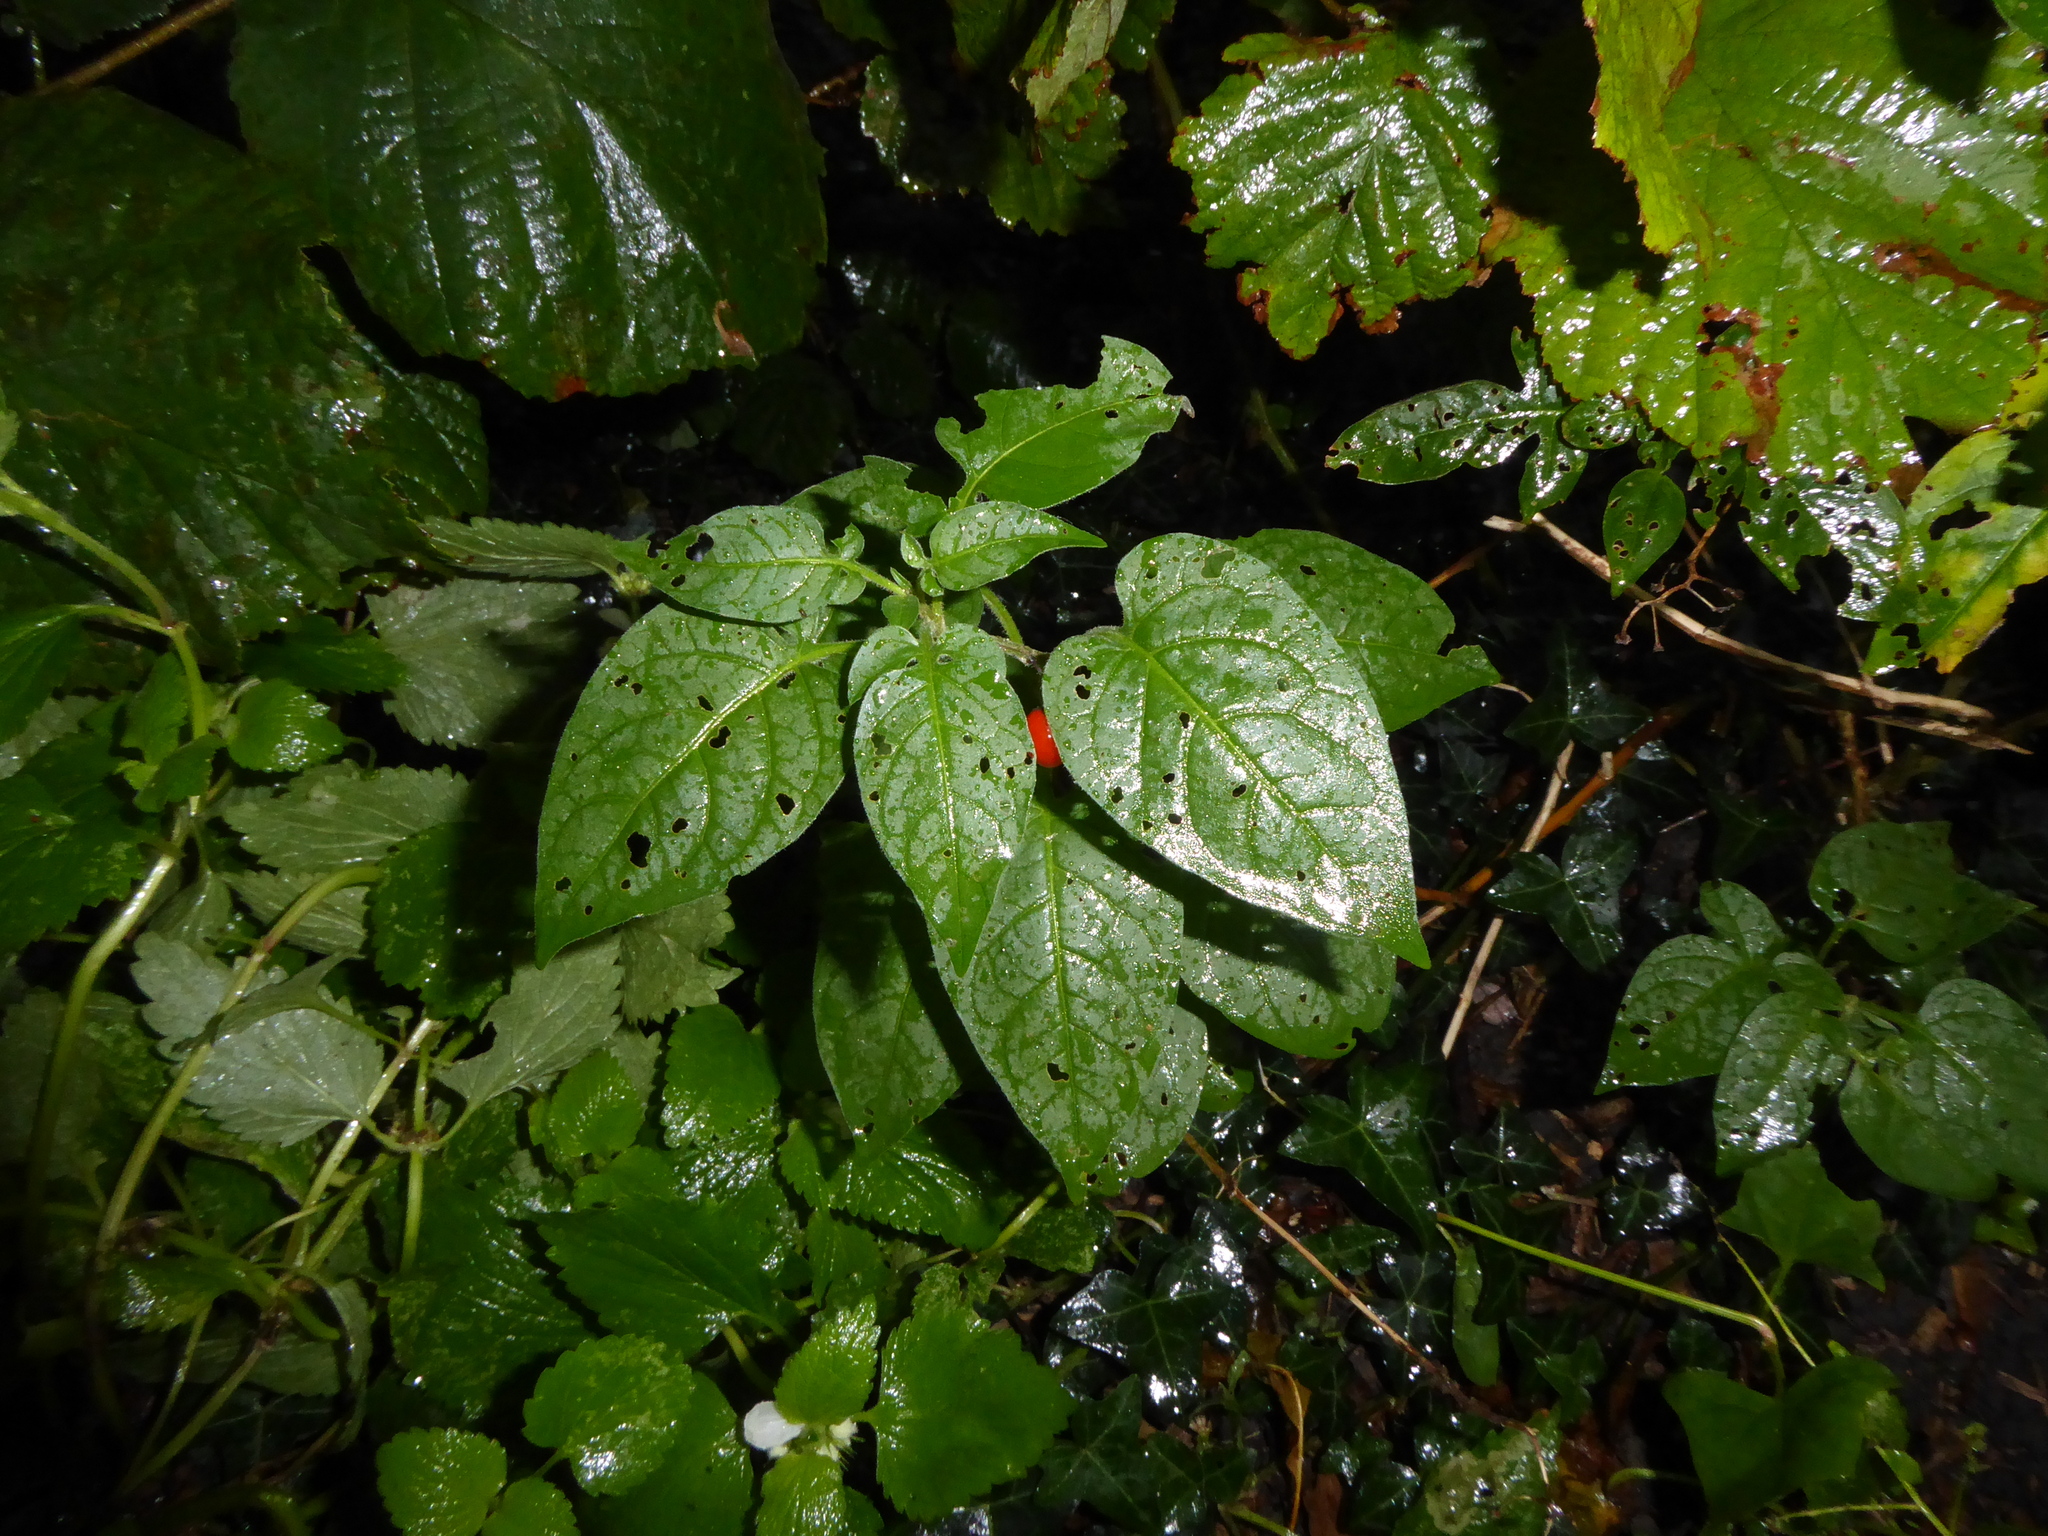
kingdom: Plantae
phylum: Tracheophyta
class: Magnoliopsida
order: Solanales
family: Solanaceae
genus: Solanum
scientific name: Solanum dulcamara
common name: Climbing nightshade
